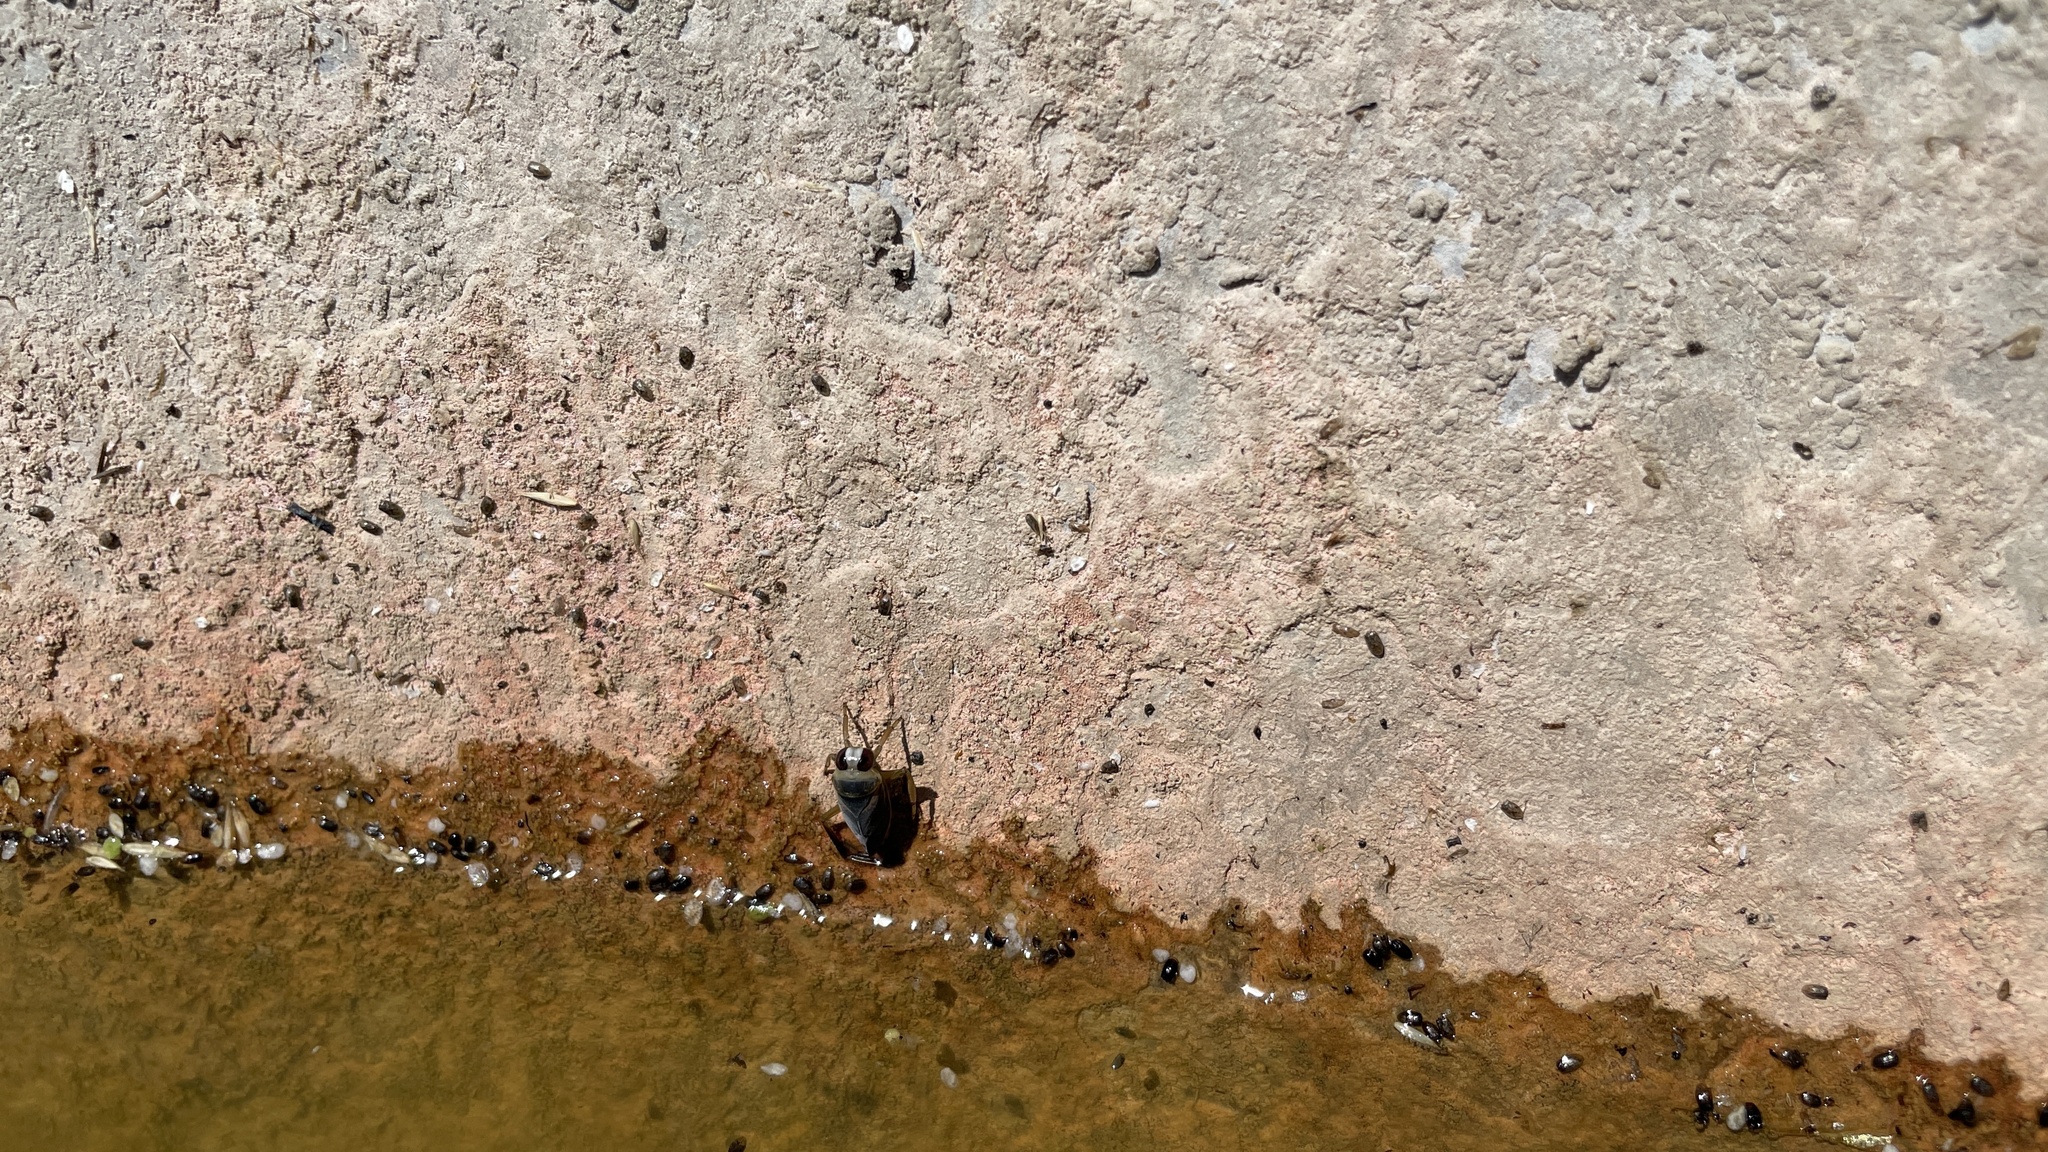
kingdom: Animalia
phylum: Arthropoda
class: Insecta
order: Hemiptera
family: Notonectidae
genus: Notonecta
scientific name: Notonecta
